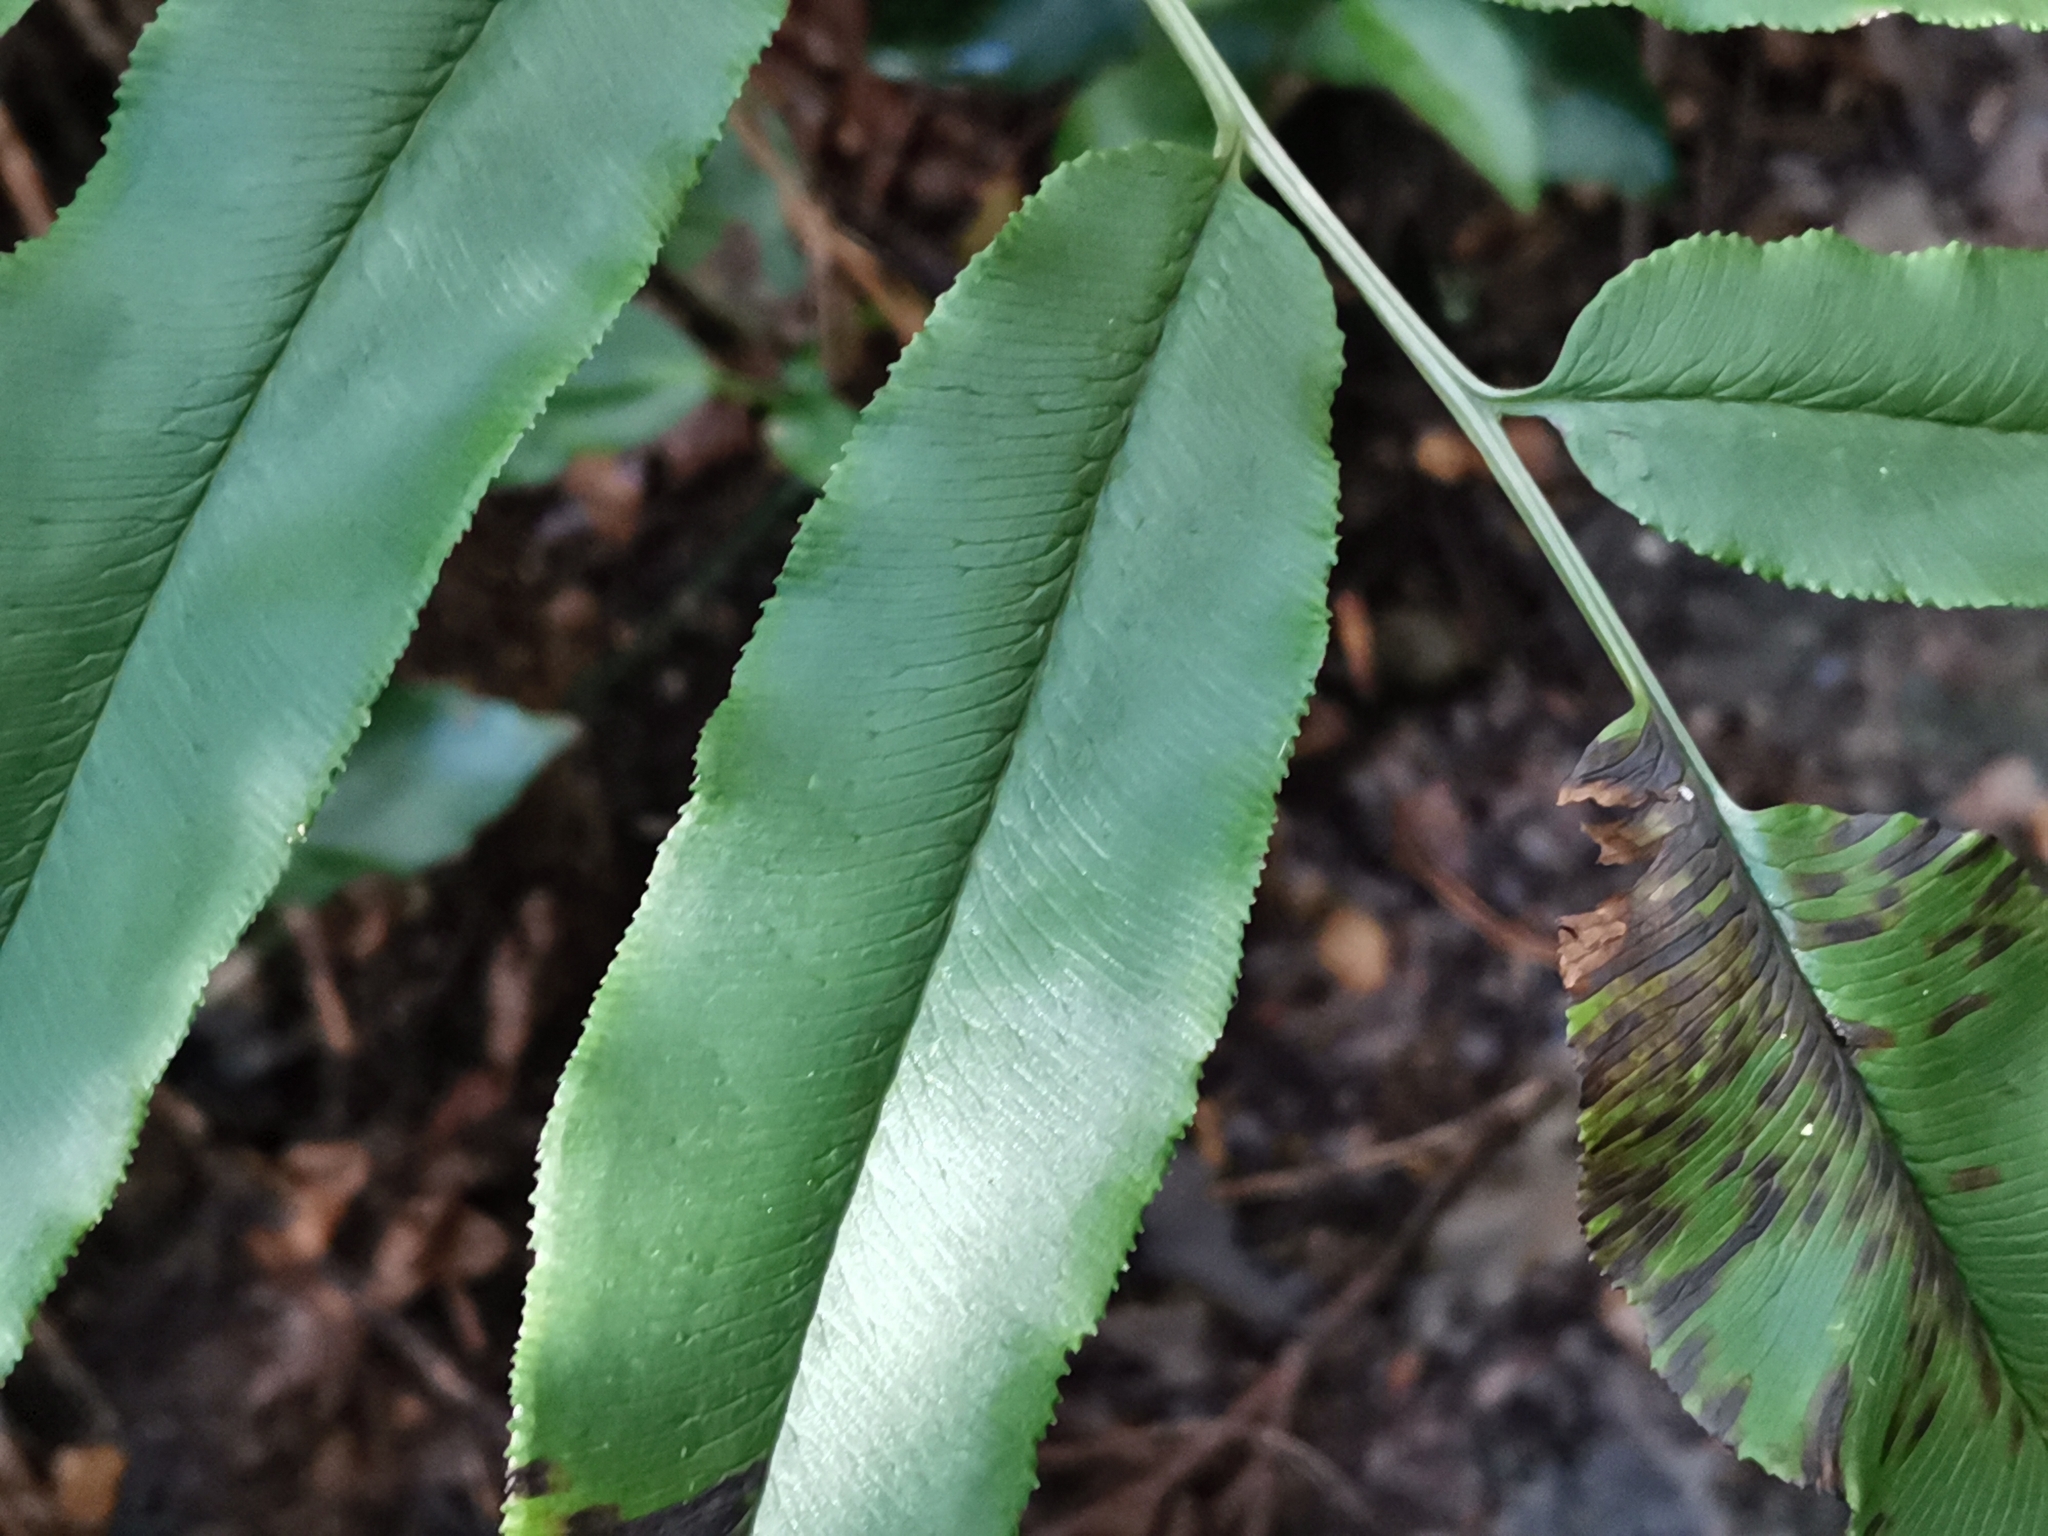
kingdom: Plantae
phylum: Tracheophyta
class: Polypodiopsida
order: Polypodiales
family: Pteridaceae
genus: Coniogramme
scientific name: Coniogramme intermedia
